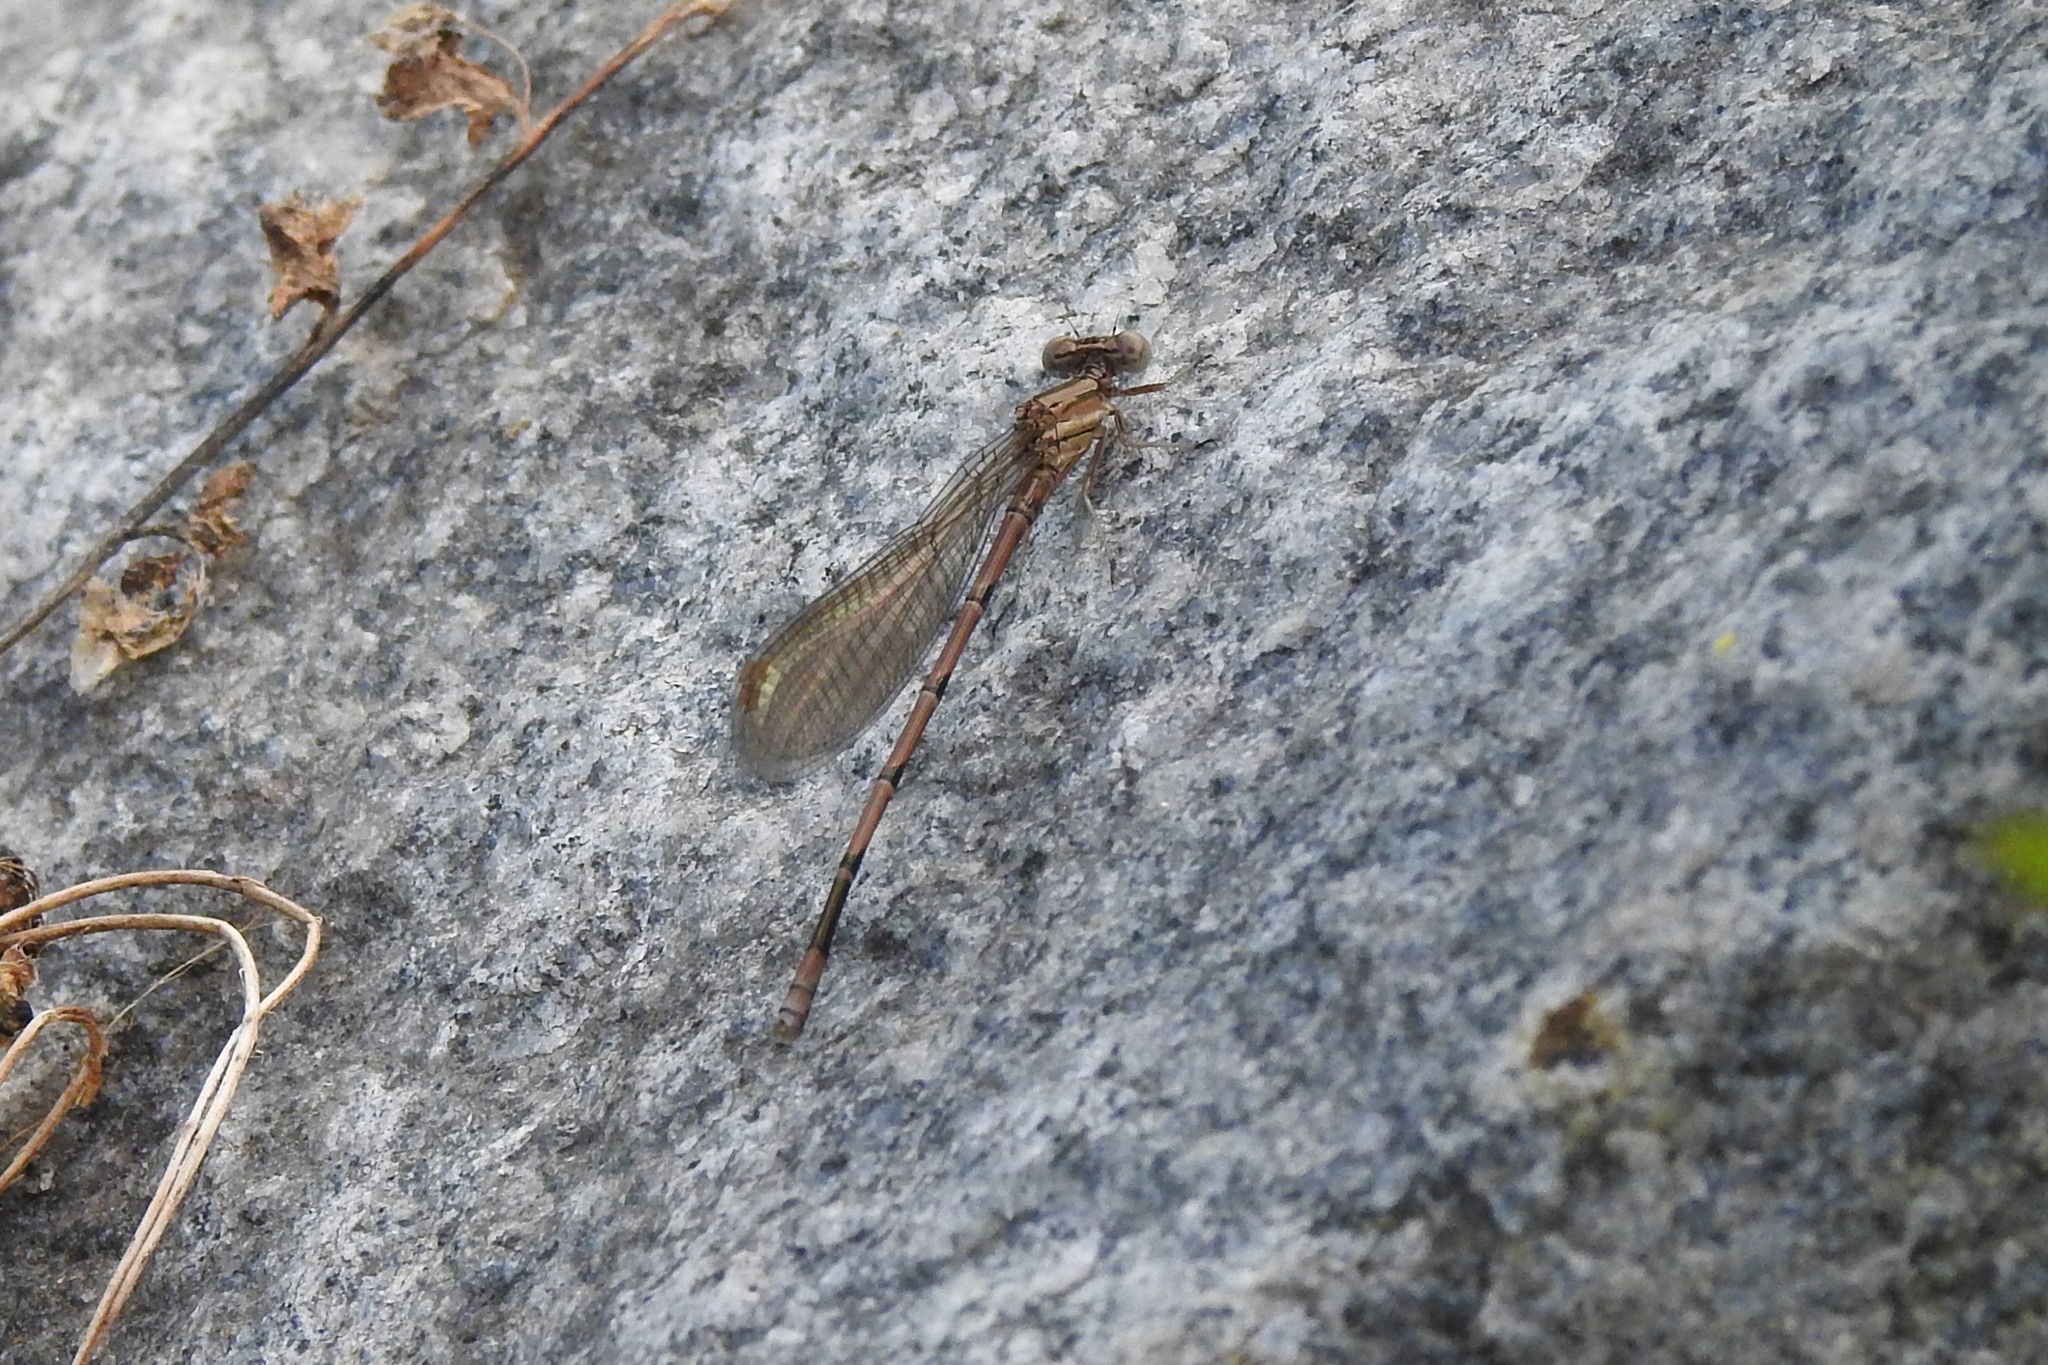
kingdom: Animalia
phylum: Arthropoda
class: Insecta
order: Odonata
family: Coenagrionidae
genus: Argia
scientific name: Argia fumipennis
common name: Variable dancer
